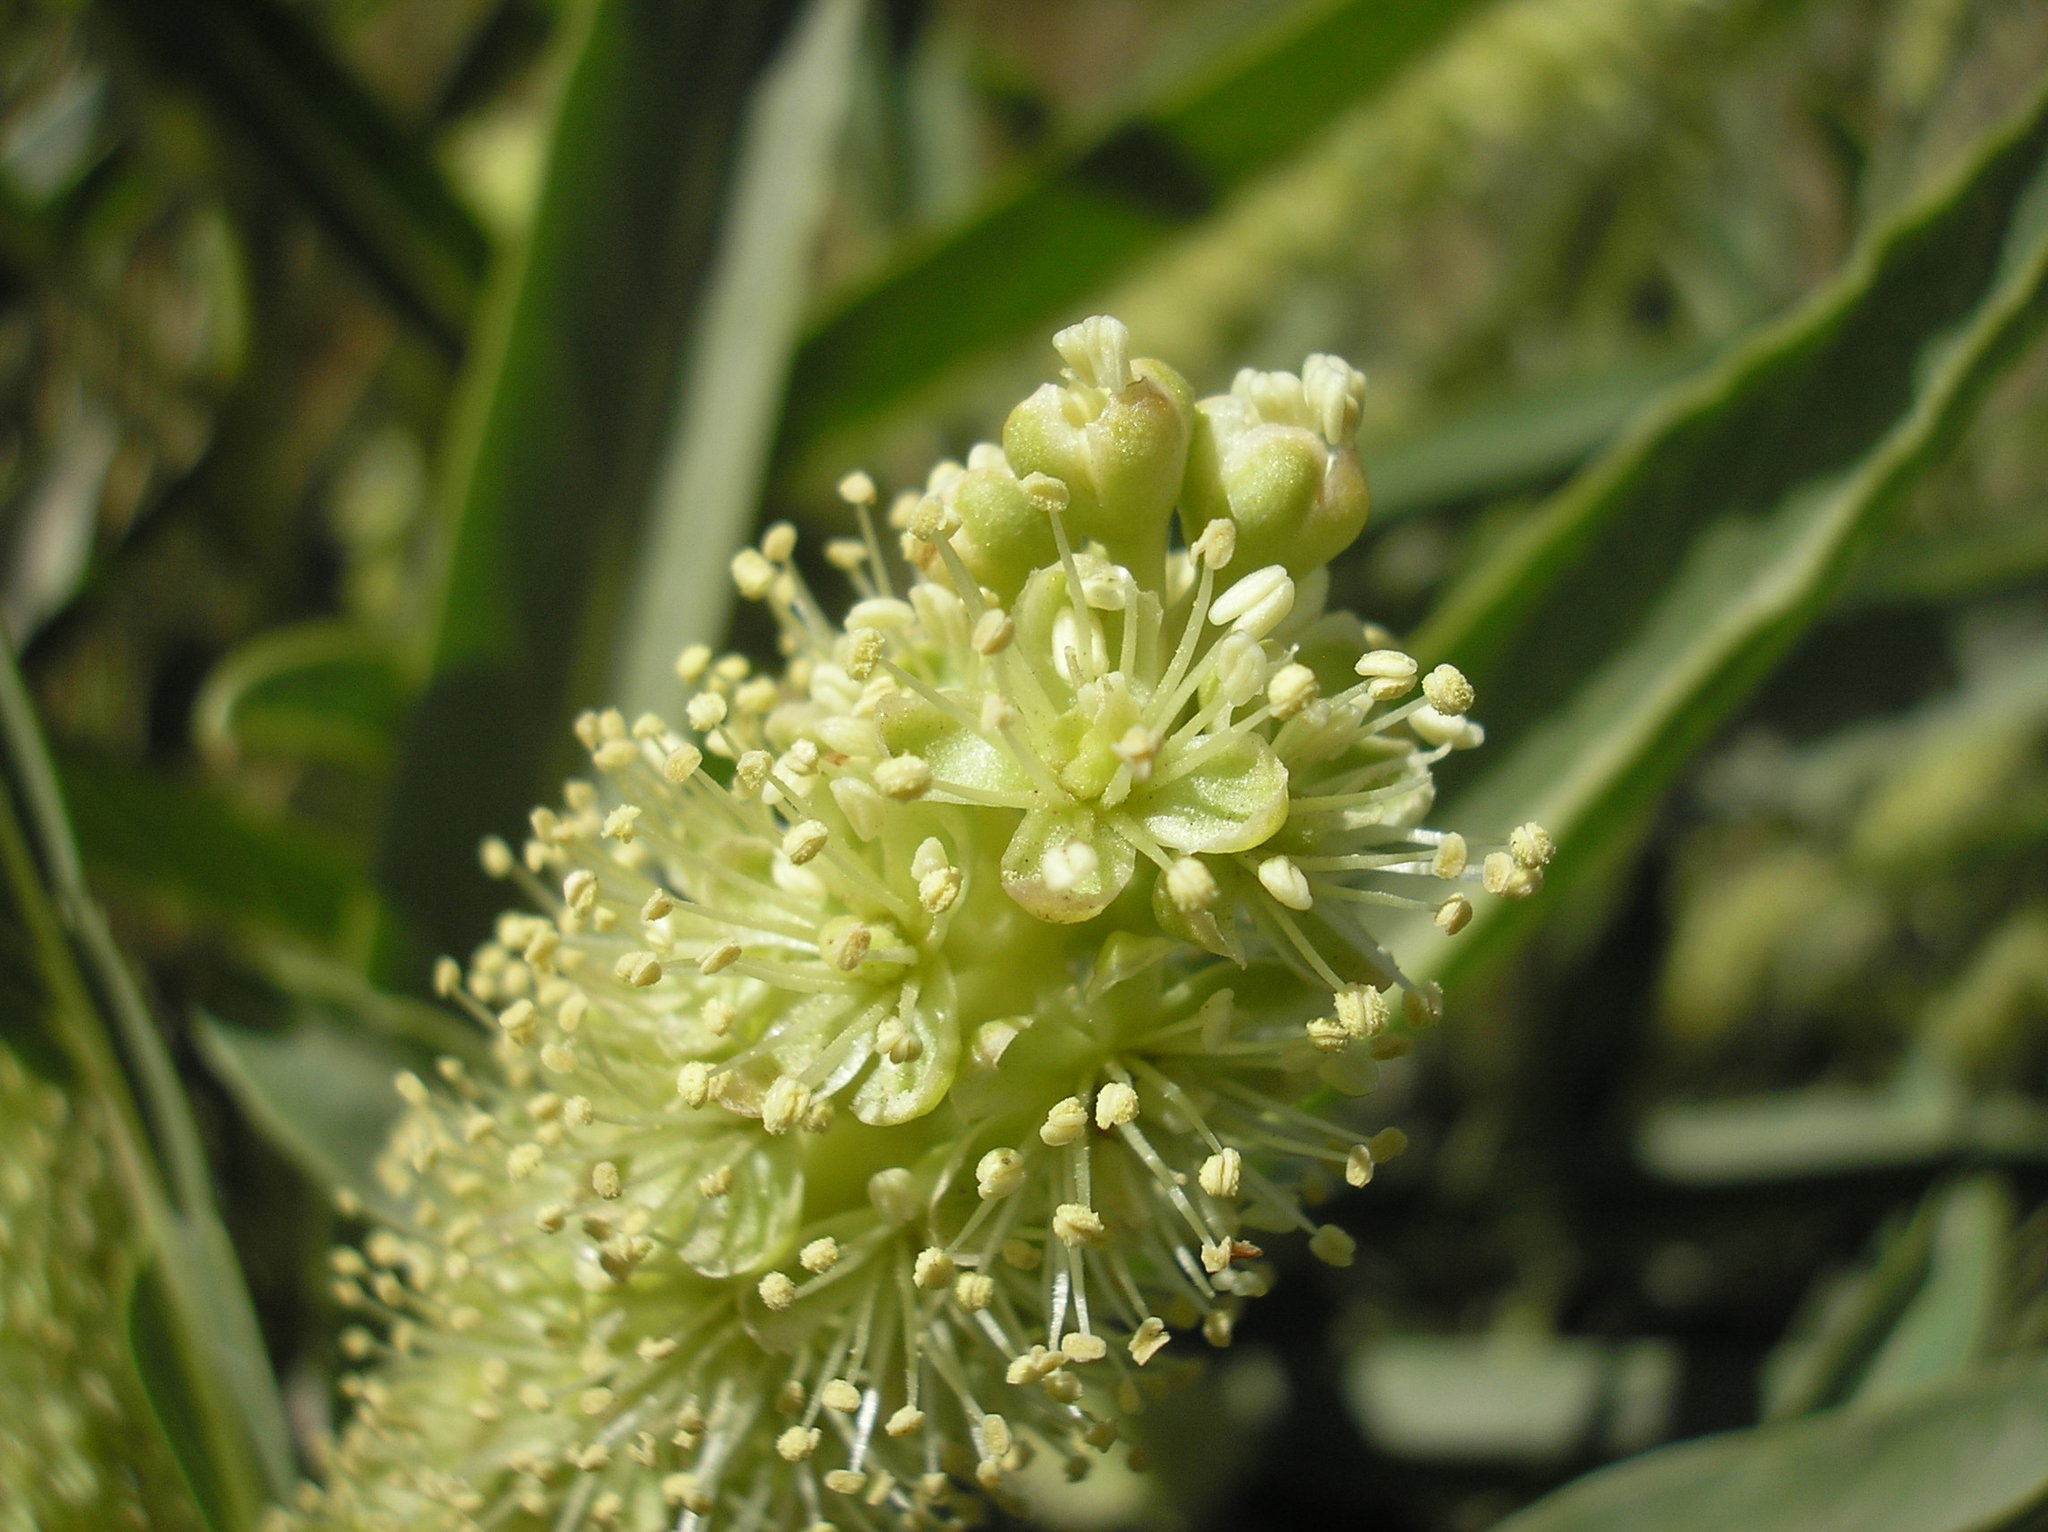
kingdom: Plantae
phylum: Tracheophyta
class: Magnoliopsida
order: Caryophyllales
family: Phytolaccaceae
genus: Phytolacca
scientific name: Phytolacca tetramera
